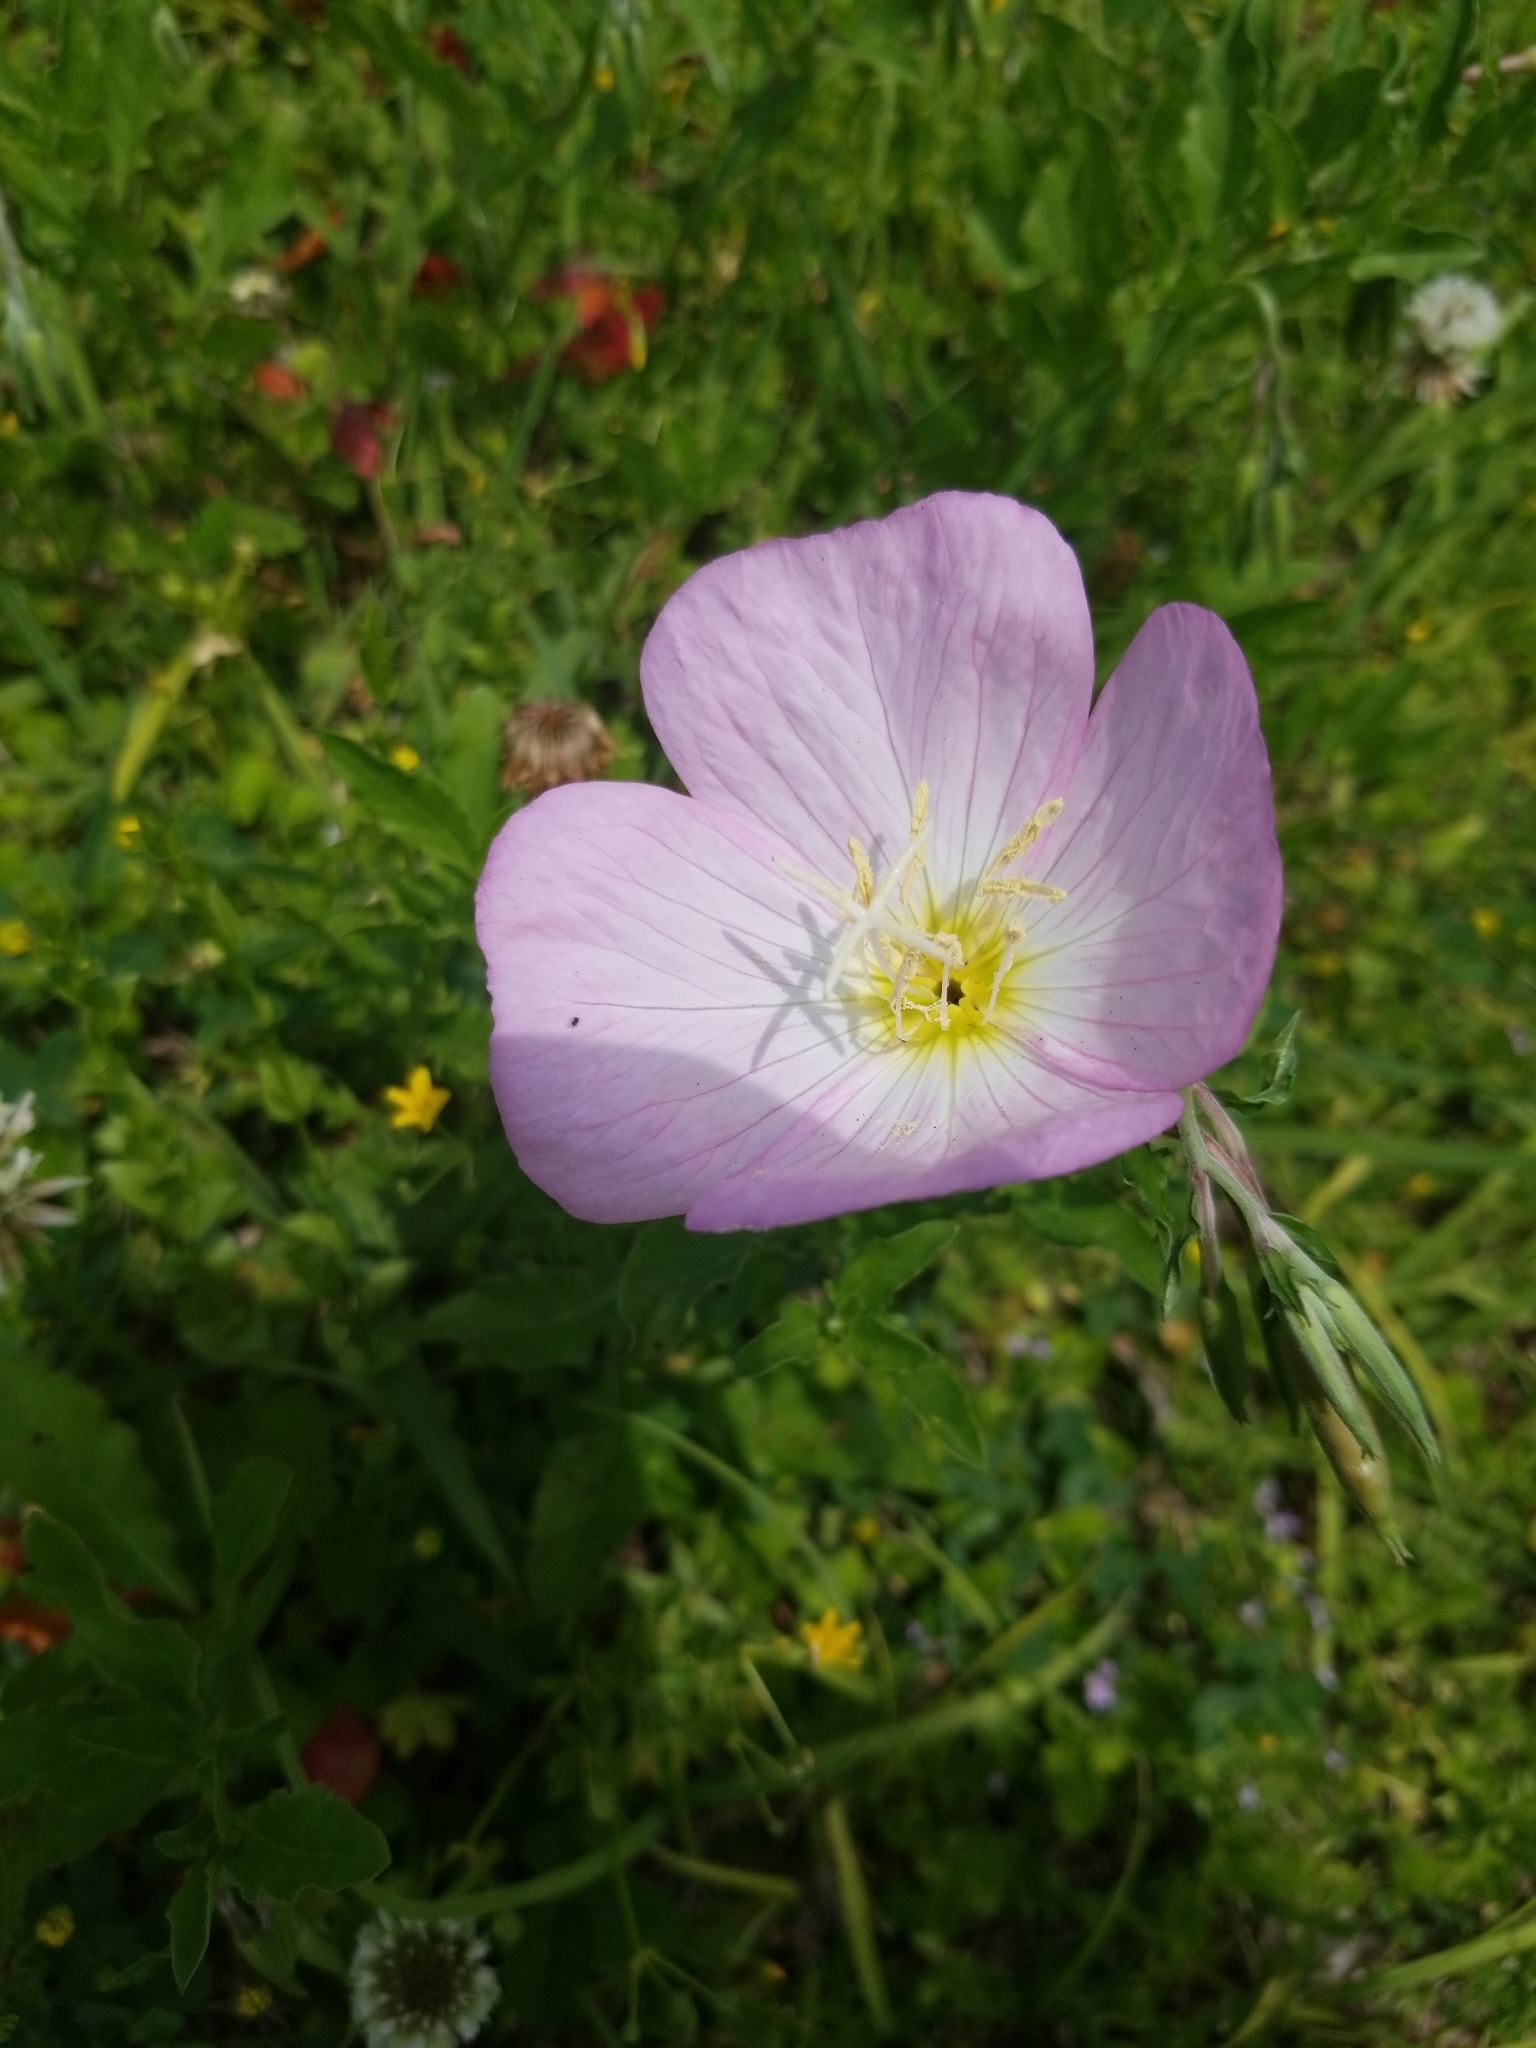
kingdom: Plantae
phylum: Tracheophyta
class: Magnoliopsida
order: Myrtales
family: Onagraceae
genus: Oenothera
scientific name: Oenothera speciosa
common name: White evening-primrose
